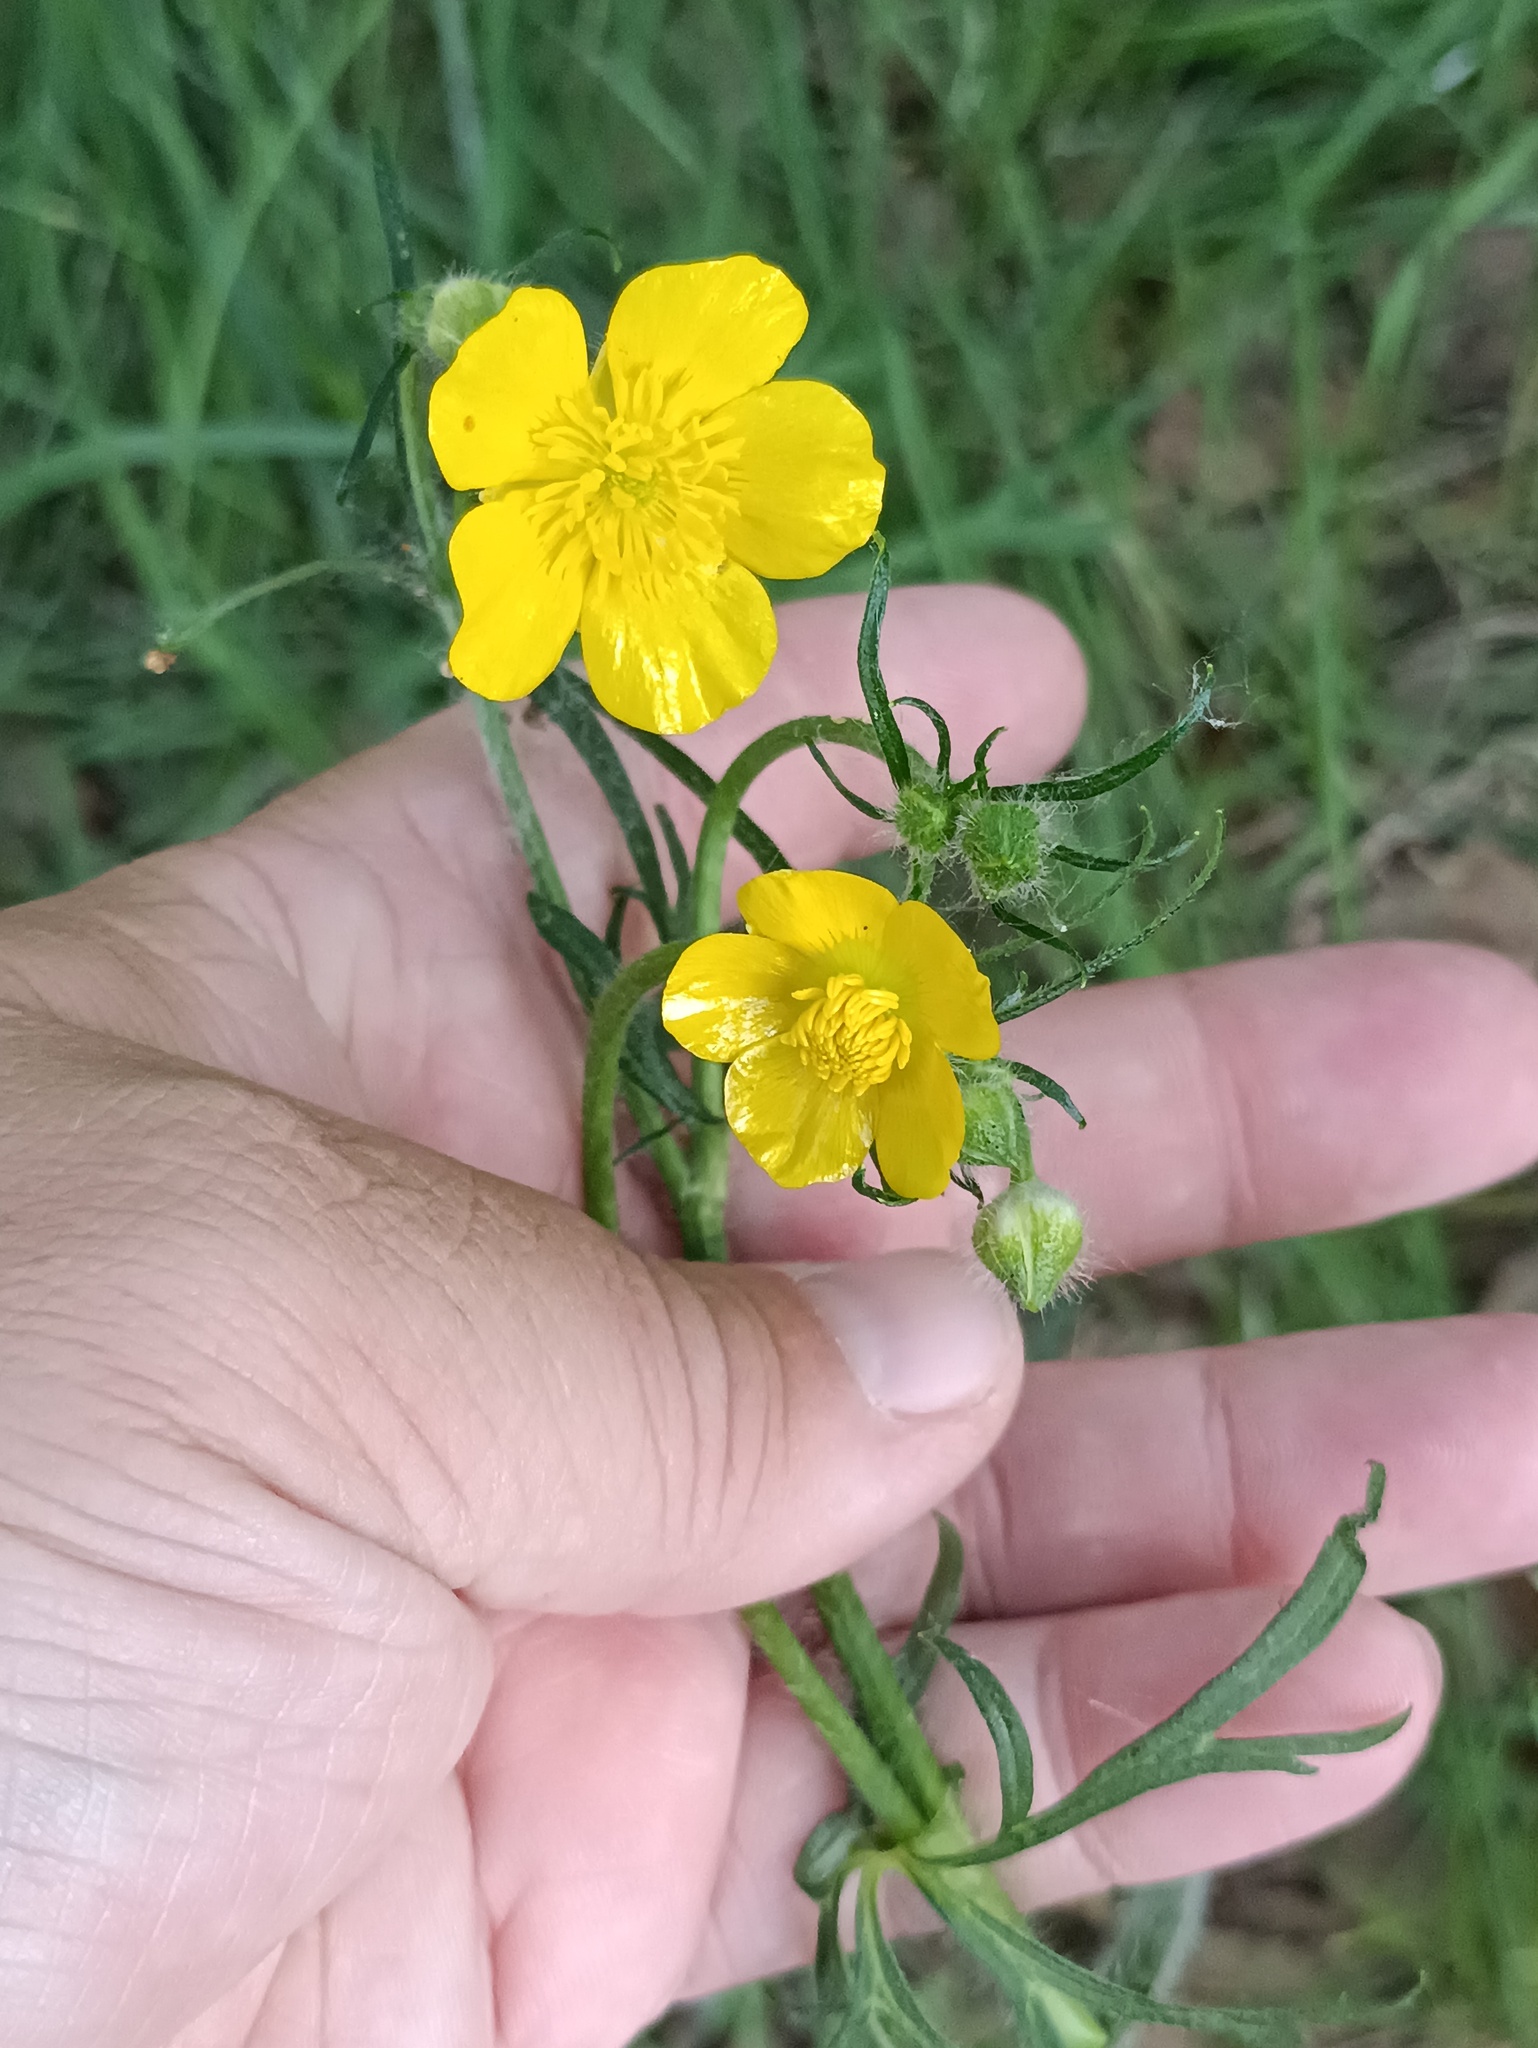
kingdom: Plantae
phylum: Tracheophyta
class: Magnoliopsida
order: Ranunculales
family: Ranunculaceae
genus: Ranunculus
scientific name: Ranunculus polyanthemos
